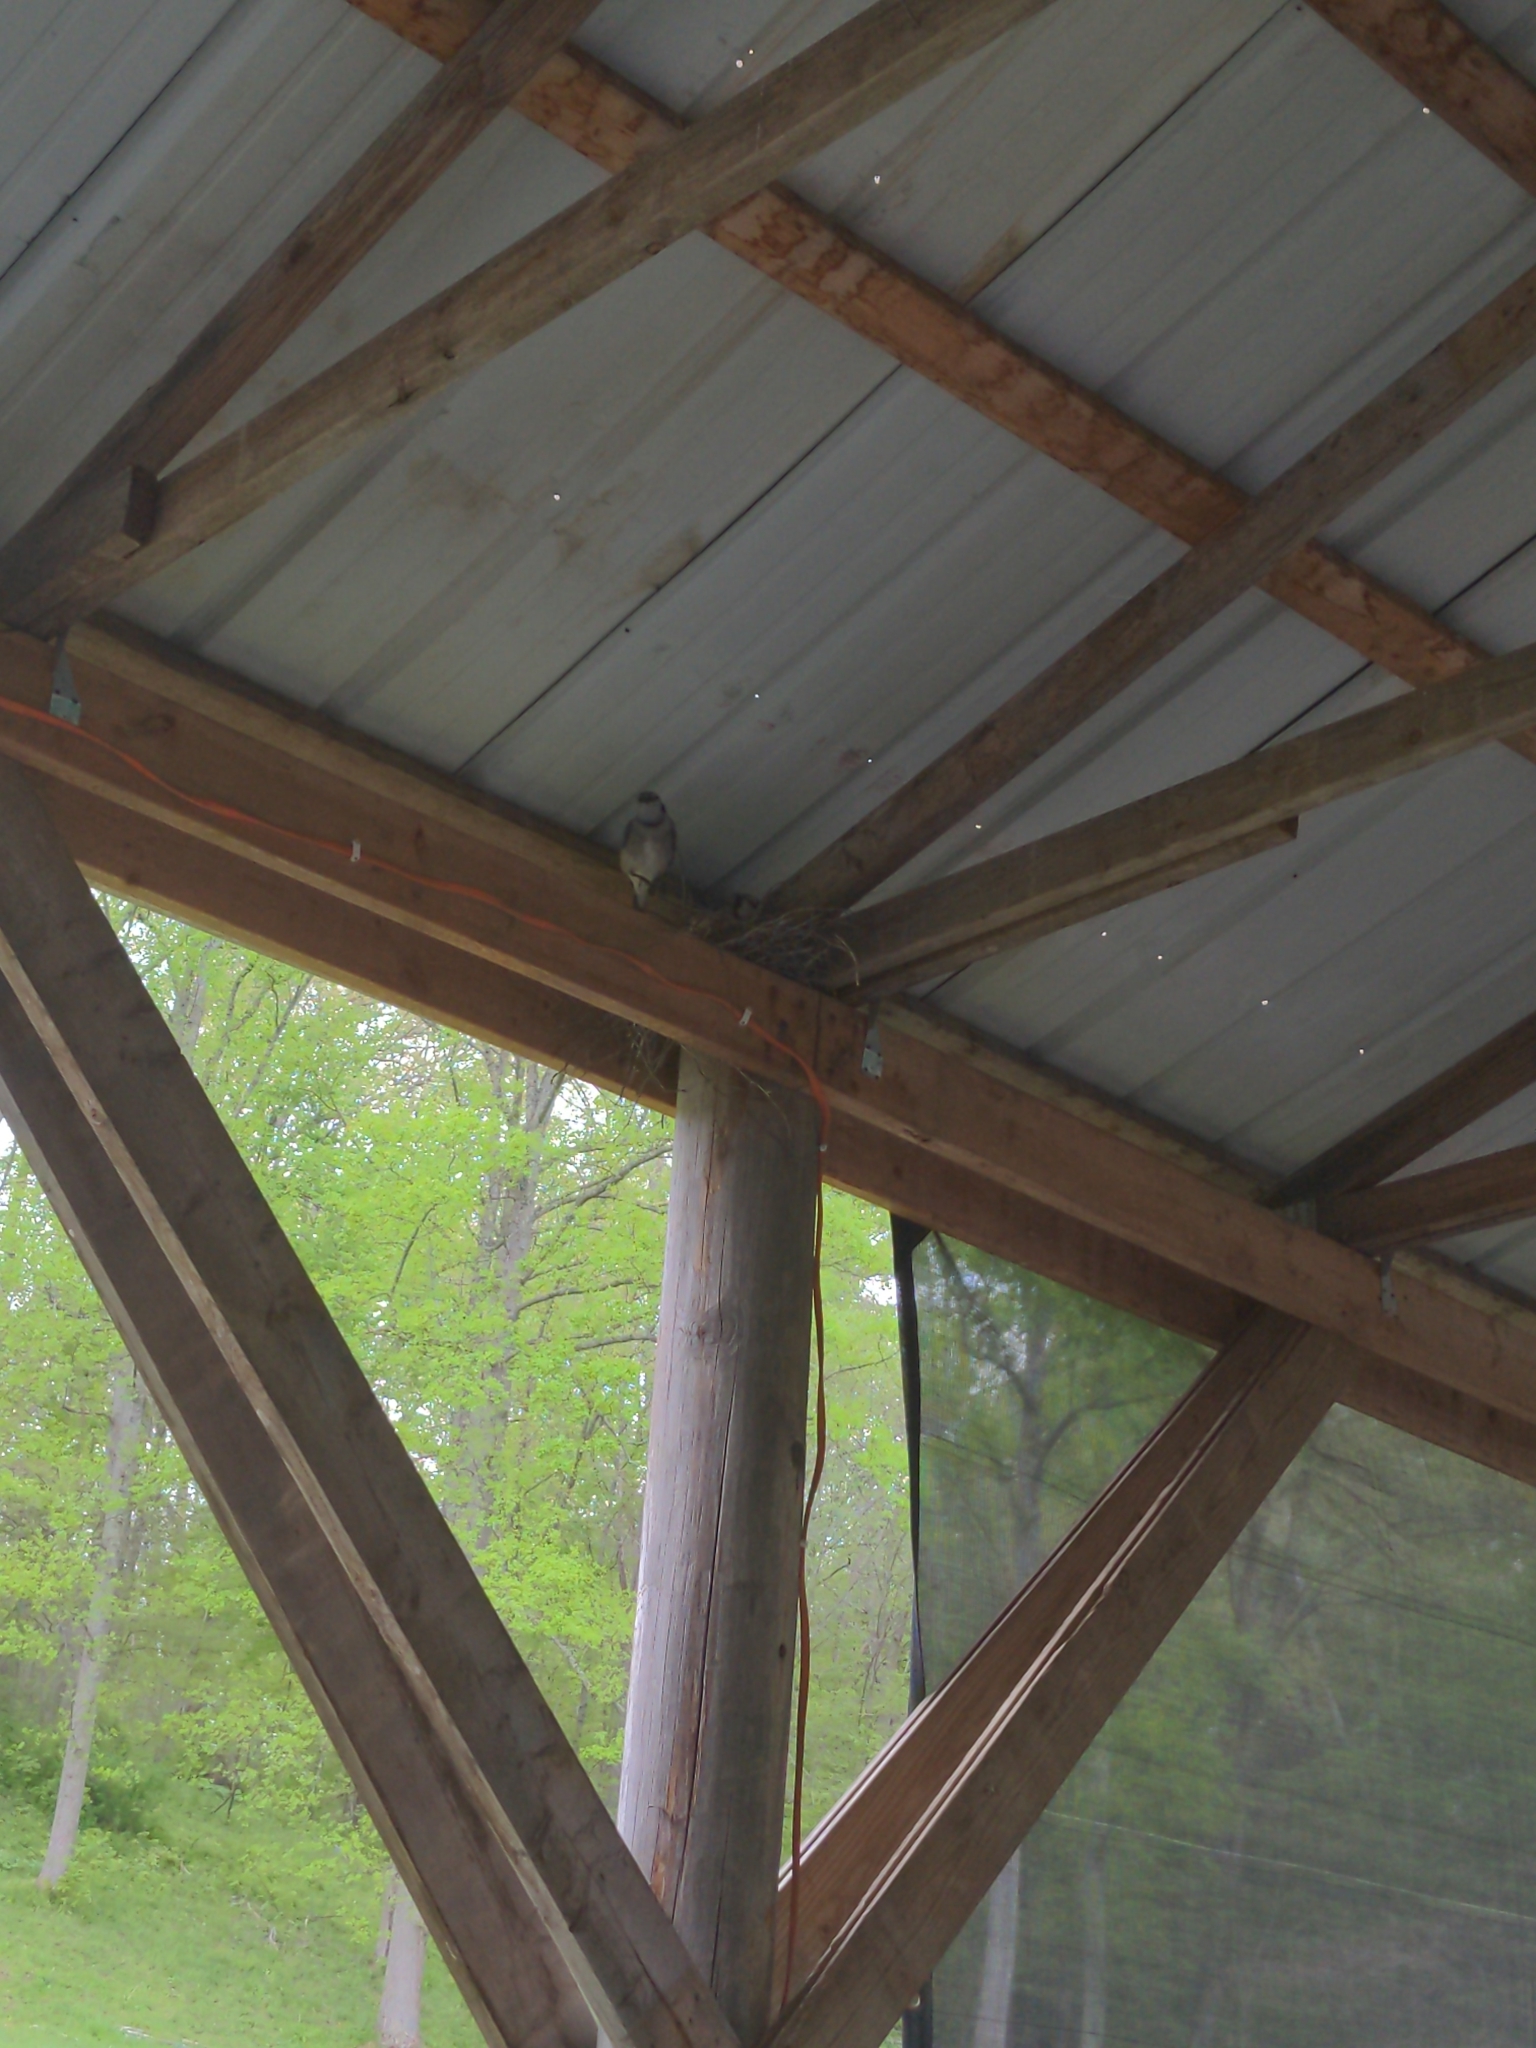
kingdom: Animalia
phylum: Chordata
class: Aves
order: Passeriformes
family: Corvidae
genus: Cyanocitta
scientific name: Cyanocitta cristata
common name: Blue jay
